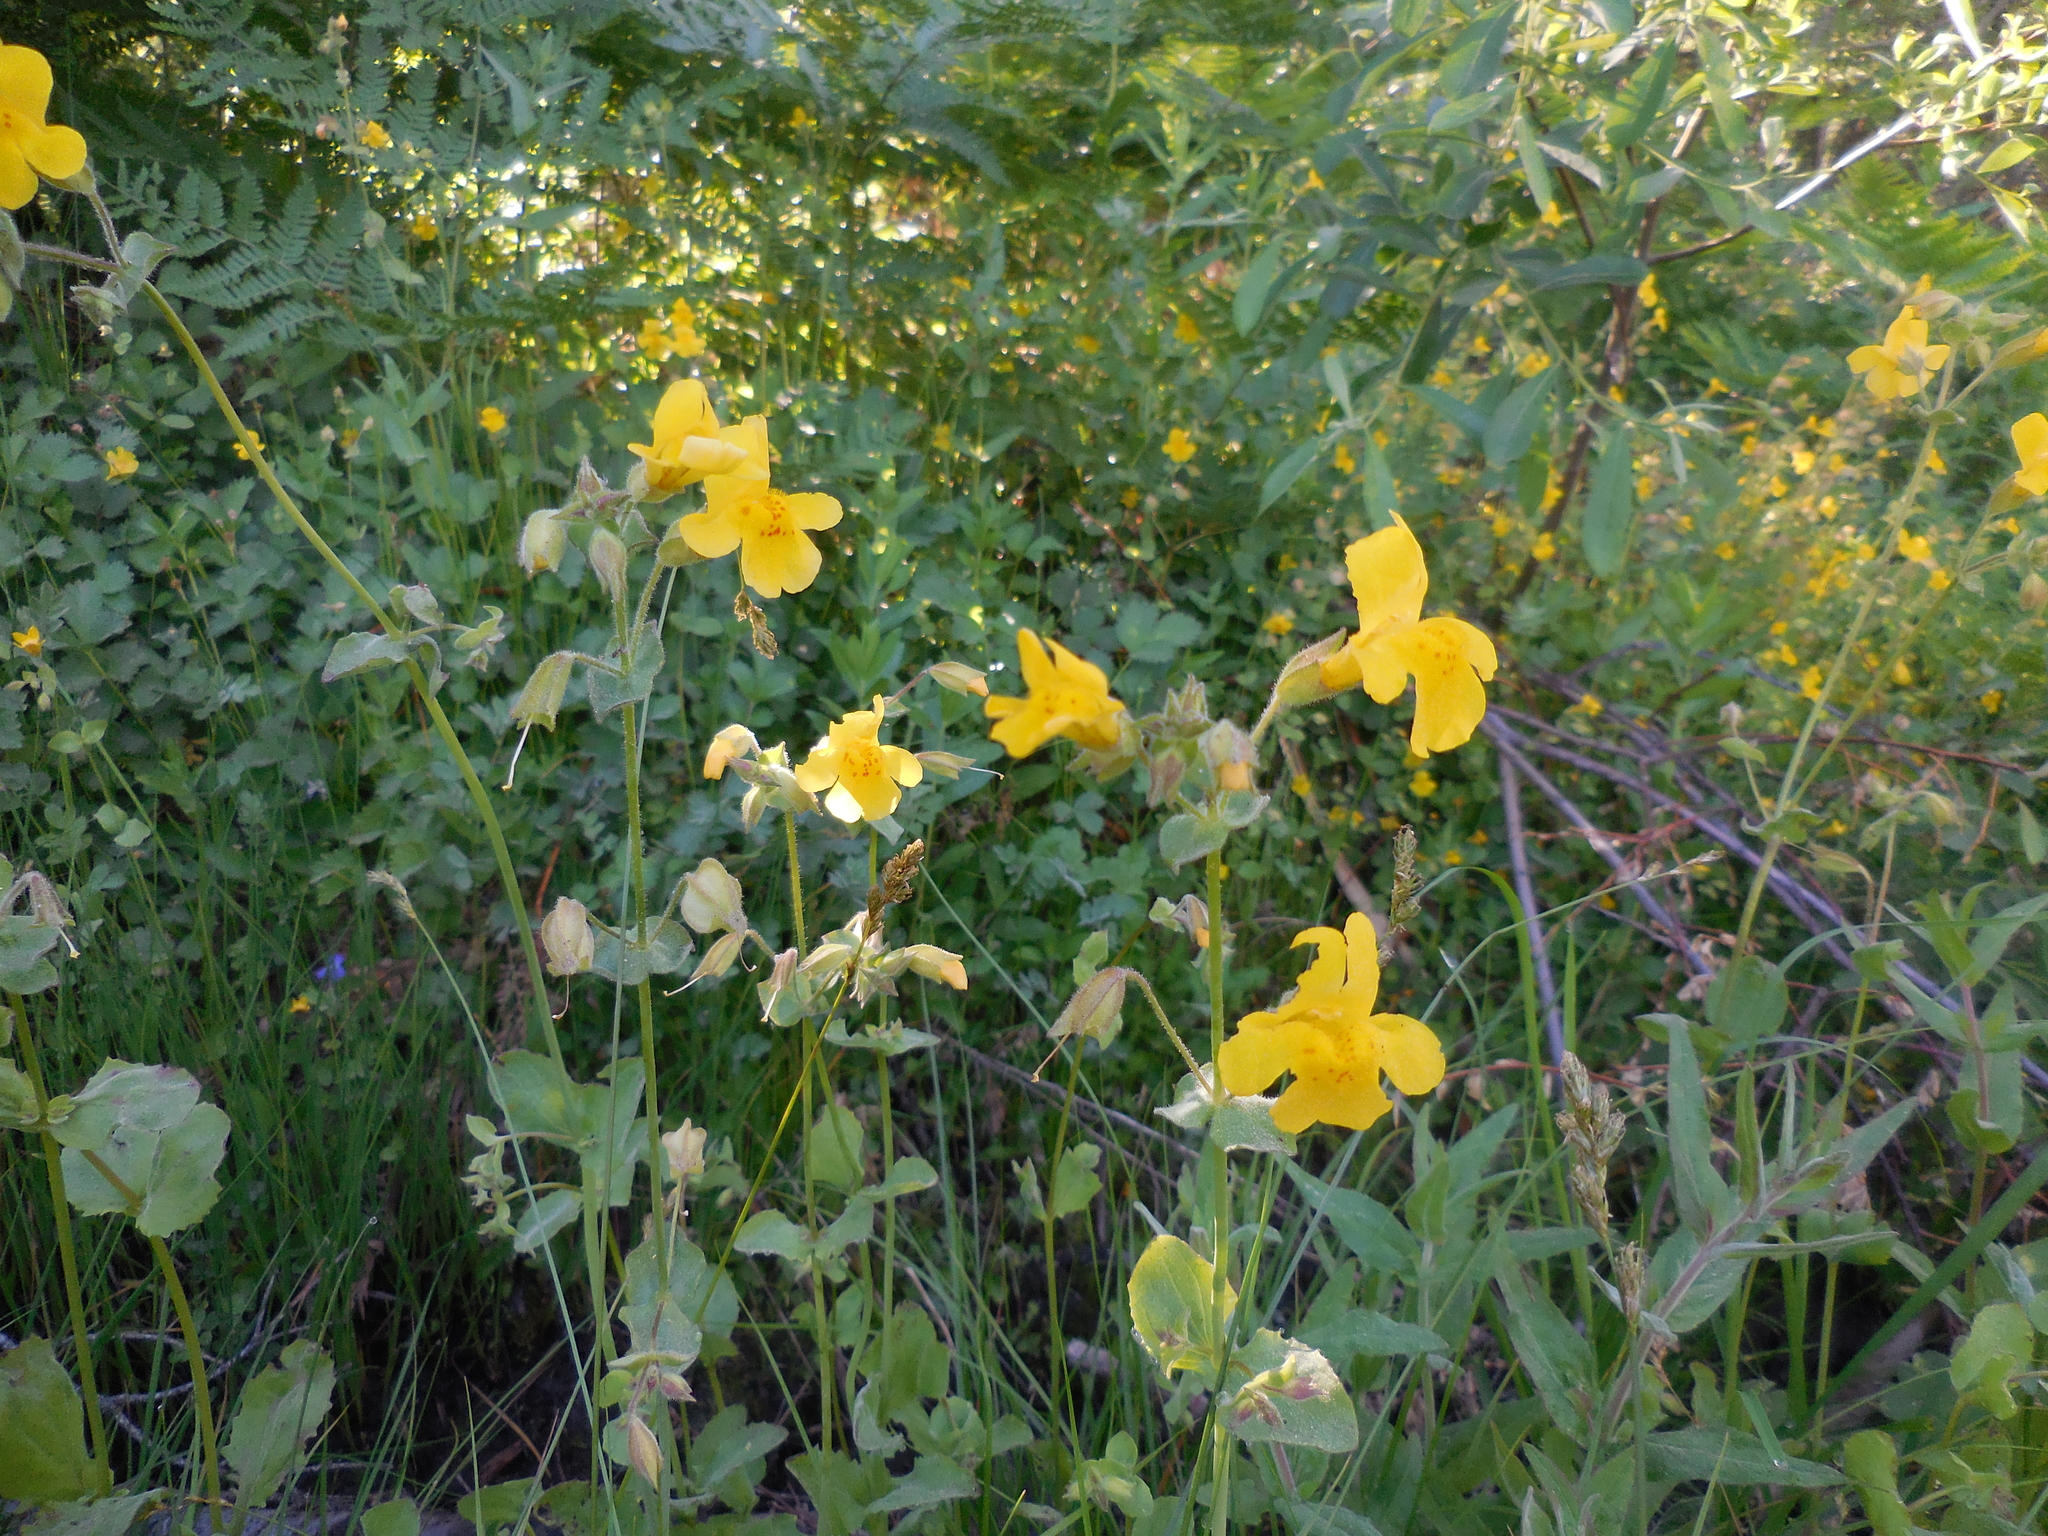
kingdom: Plantae
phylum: Tracheophyta
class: Magnoliopsida
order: Lamiales
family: Phrymaceae
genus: Erythranthe
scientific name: Erythranthe guttata
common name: Monkeyflower
